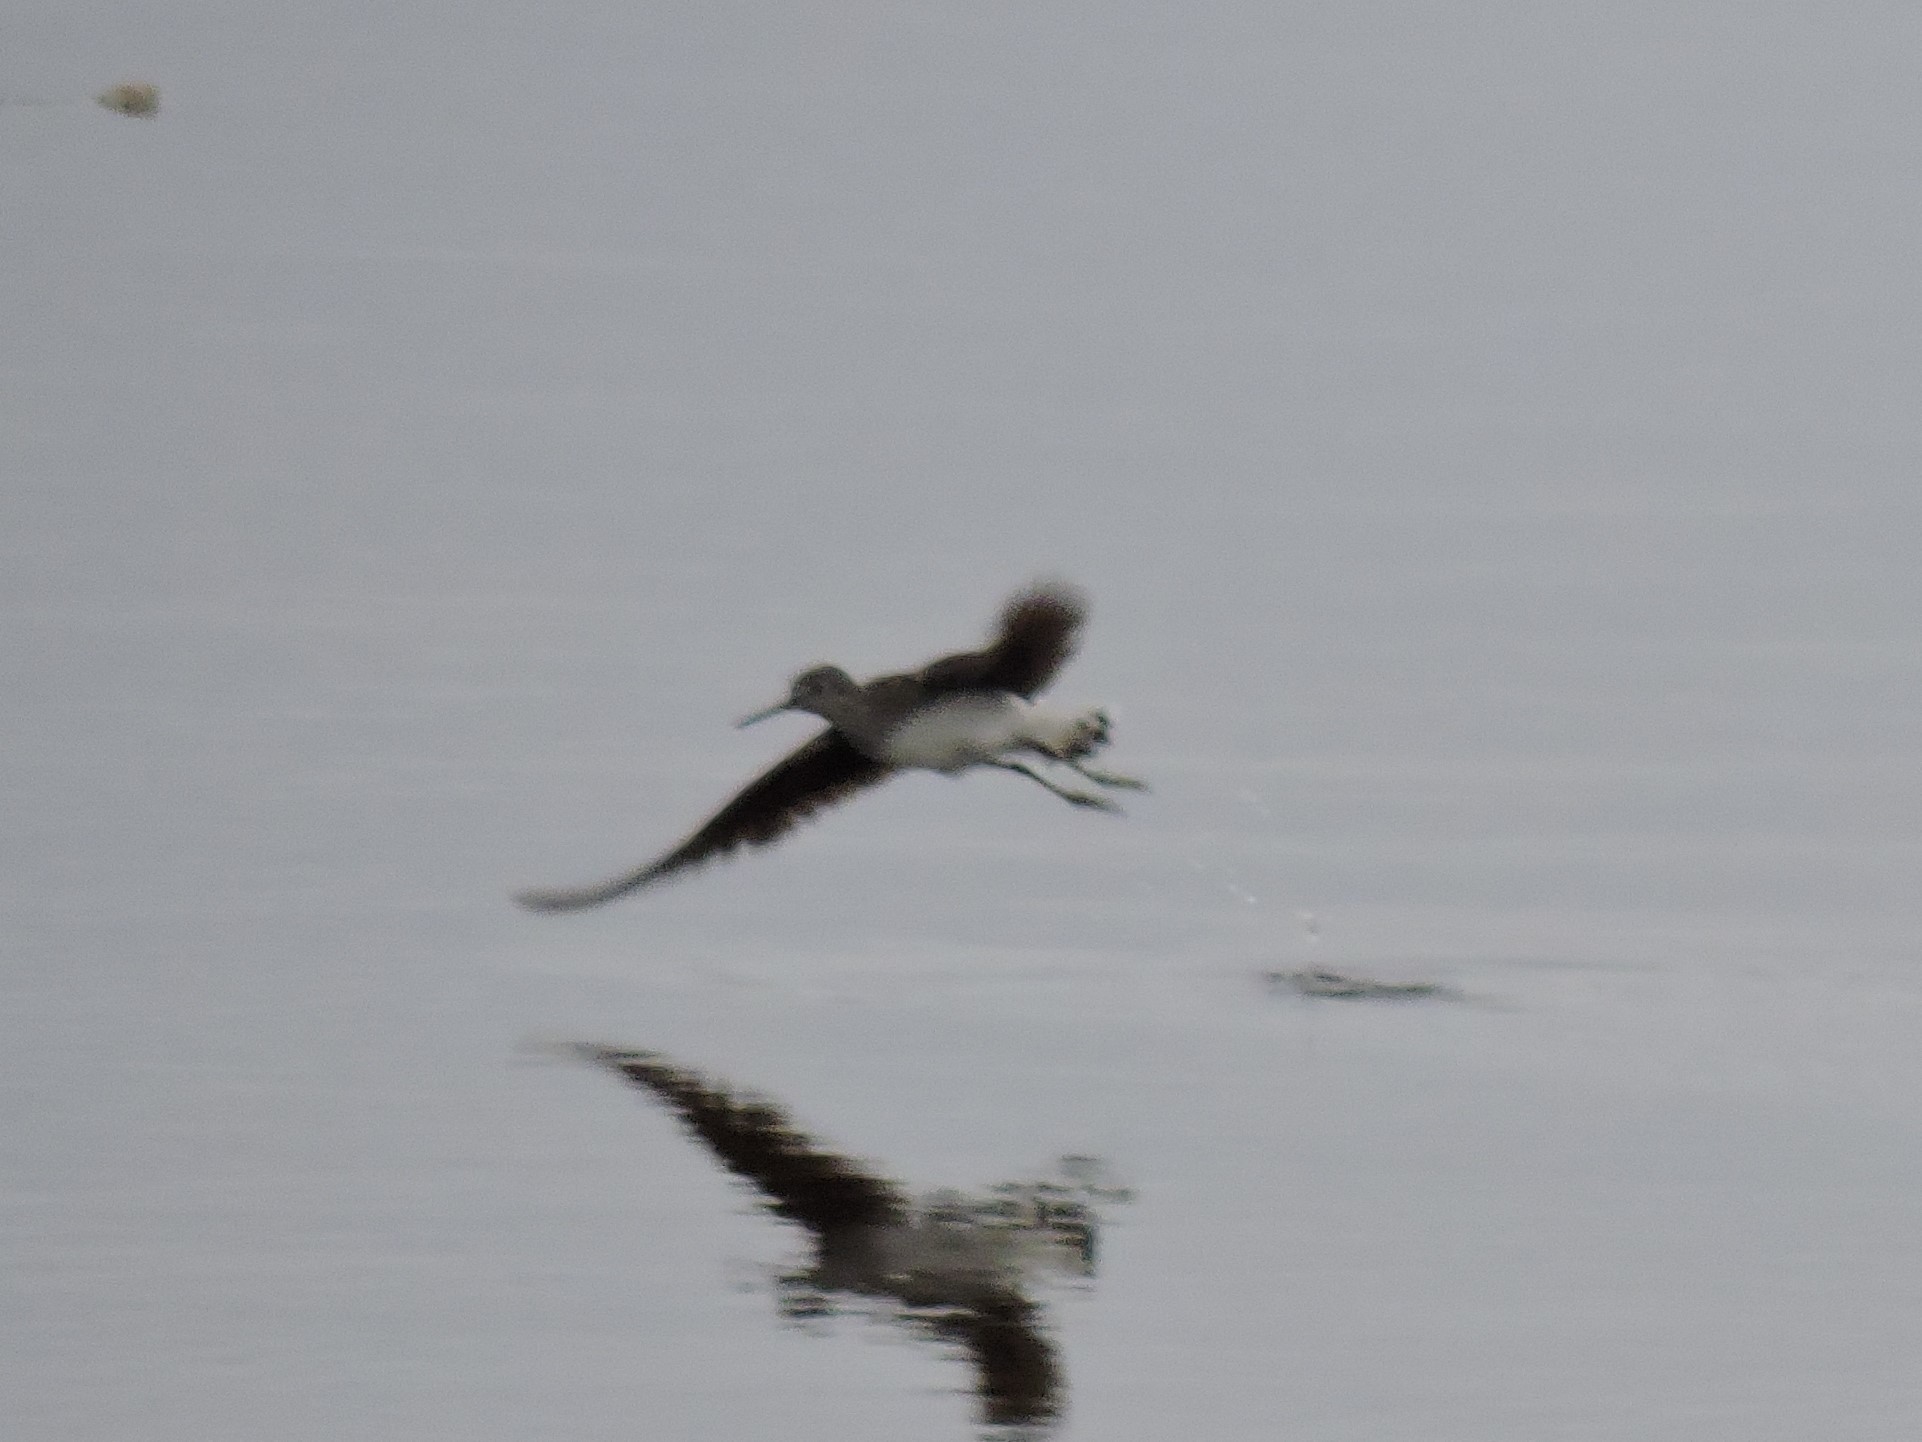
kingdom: Animalia
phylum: Chordata
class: Aves
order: Charadriiformes
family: Scolopacidae
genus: Tringa
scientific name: Tringa ochropus
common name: Green sandpiper
